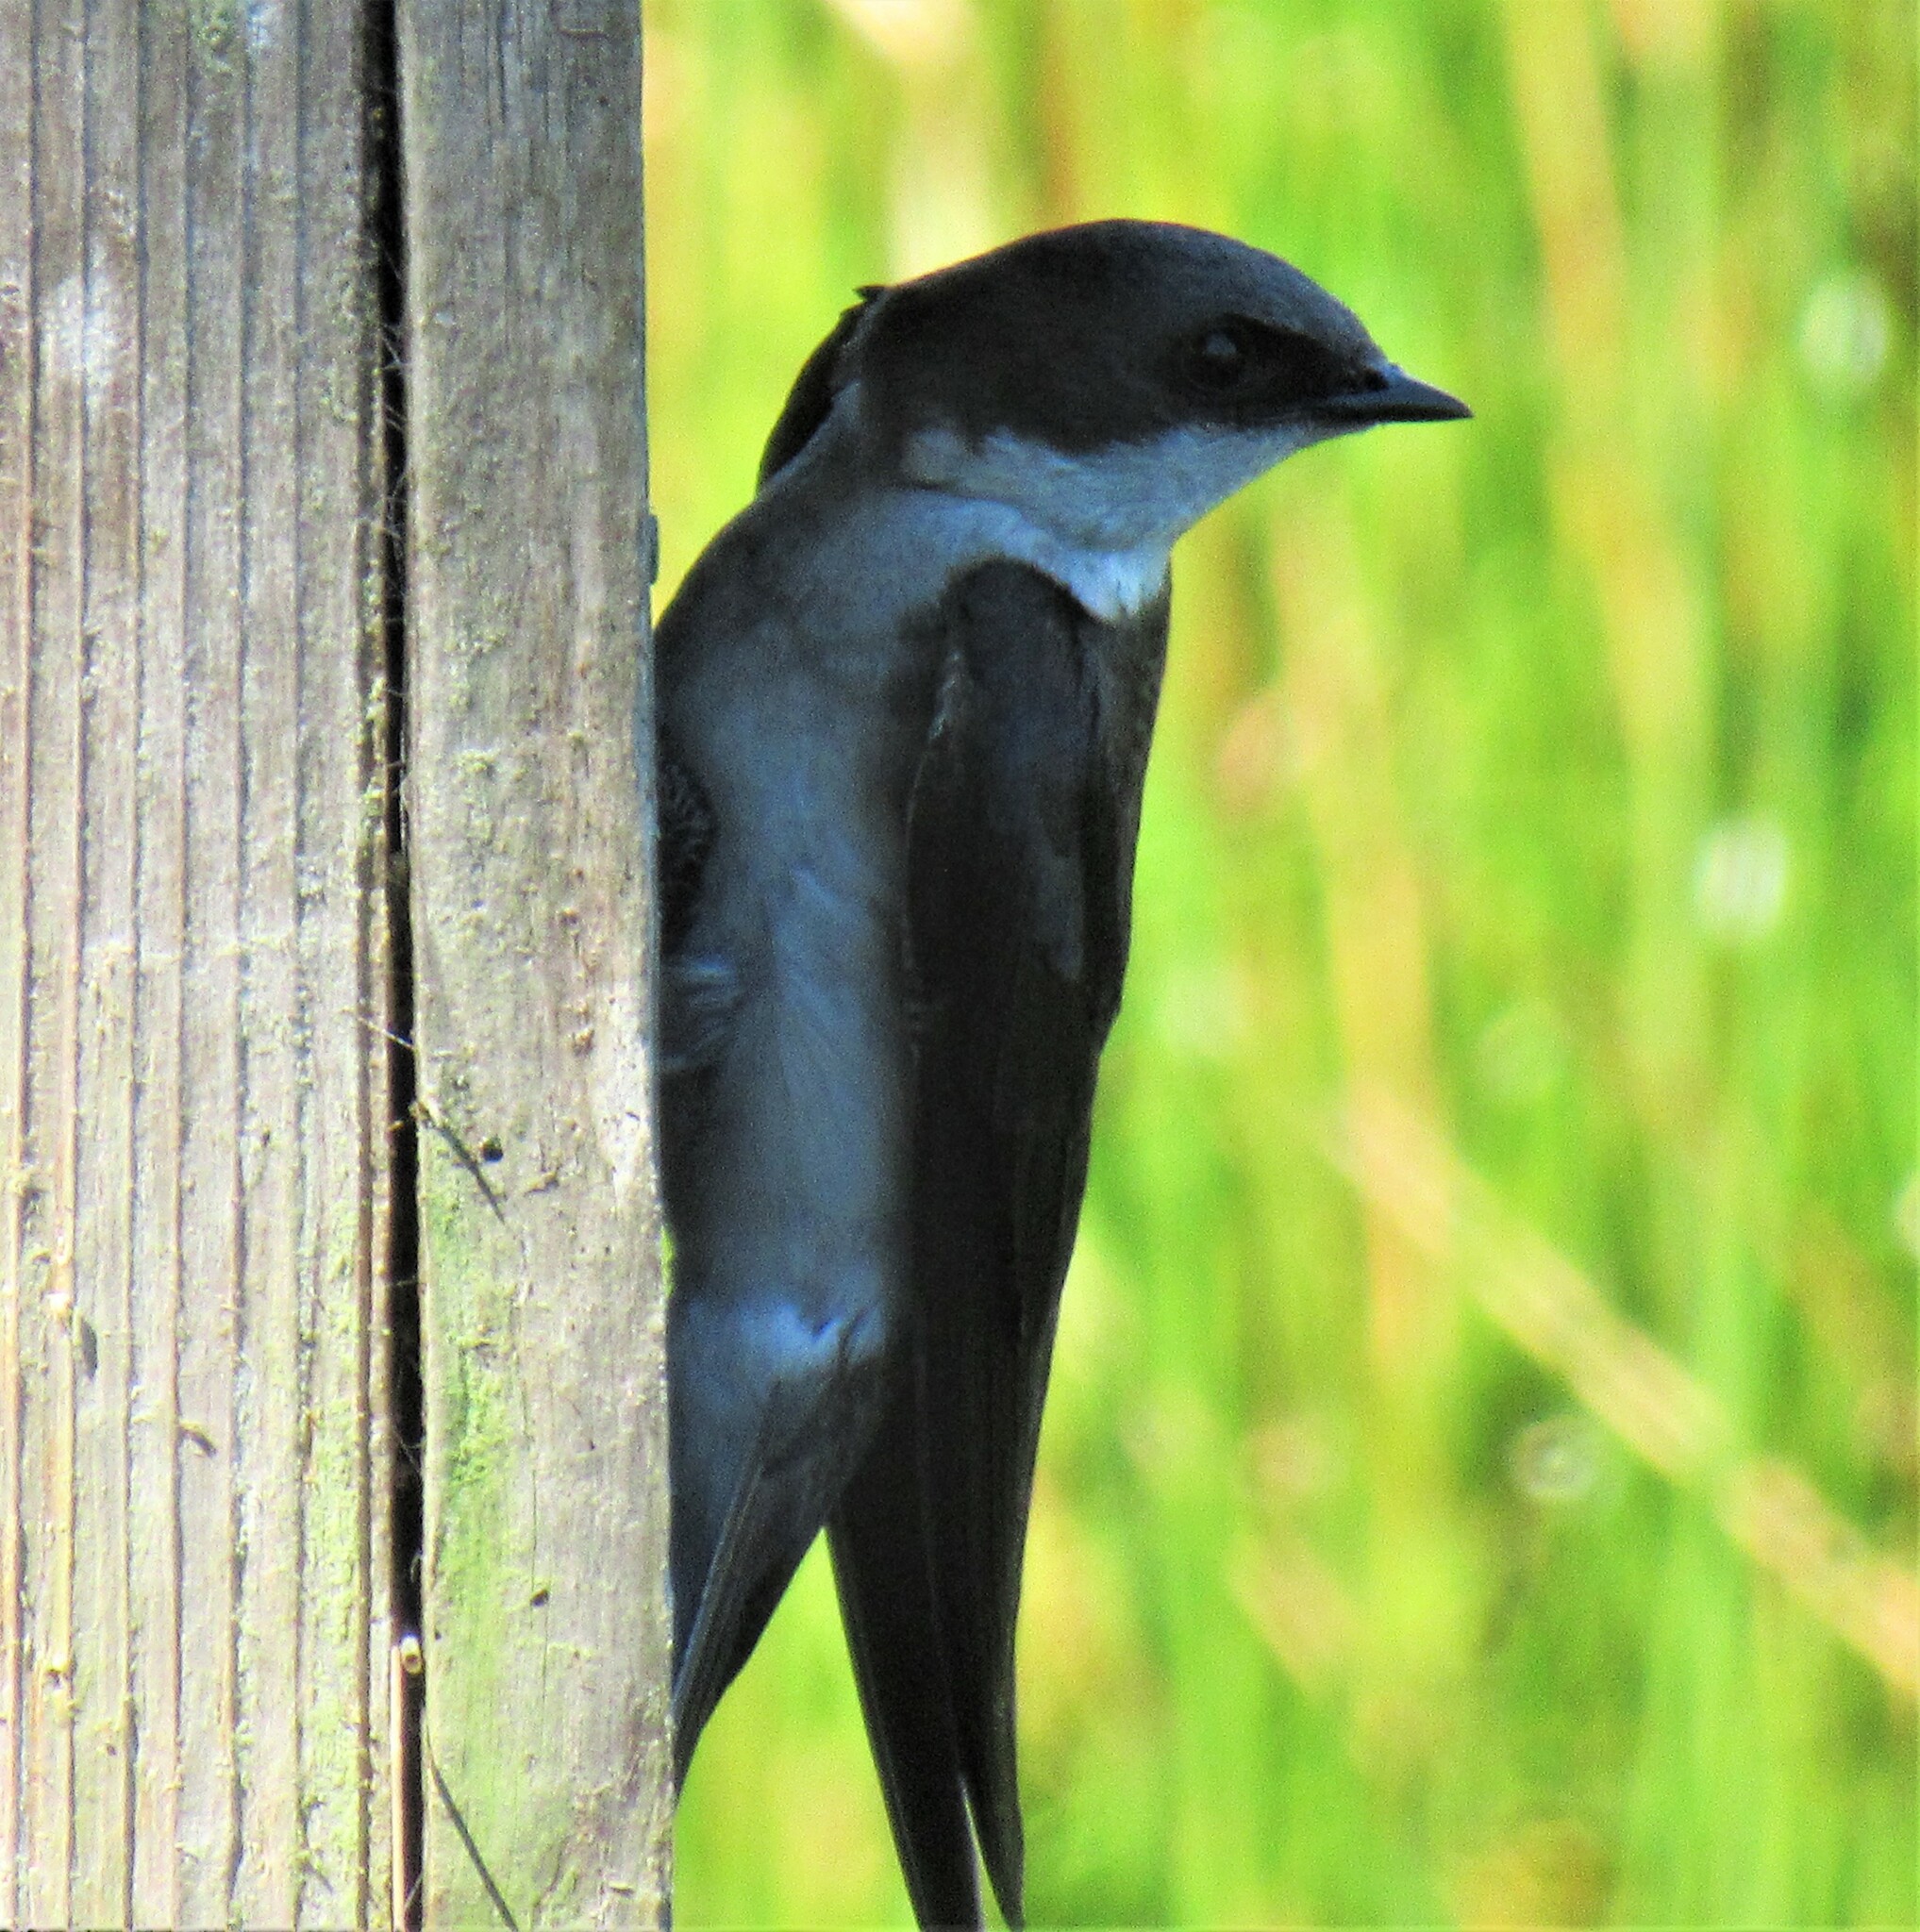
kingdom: Animalia
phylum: Chordata
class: Aves
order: Passeriformes
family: Hirundinidae
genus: Tachycineta
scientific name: Tachycineta bicolor
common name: Tree swallow
